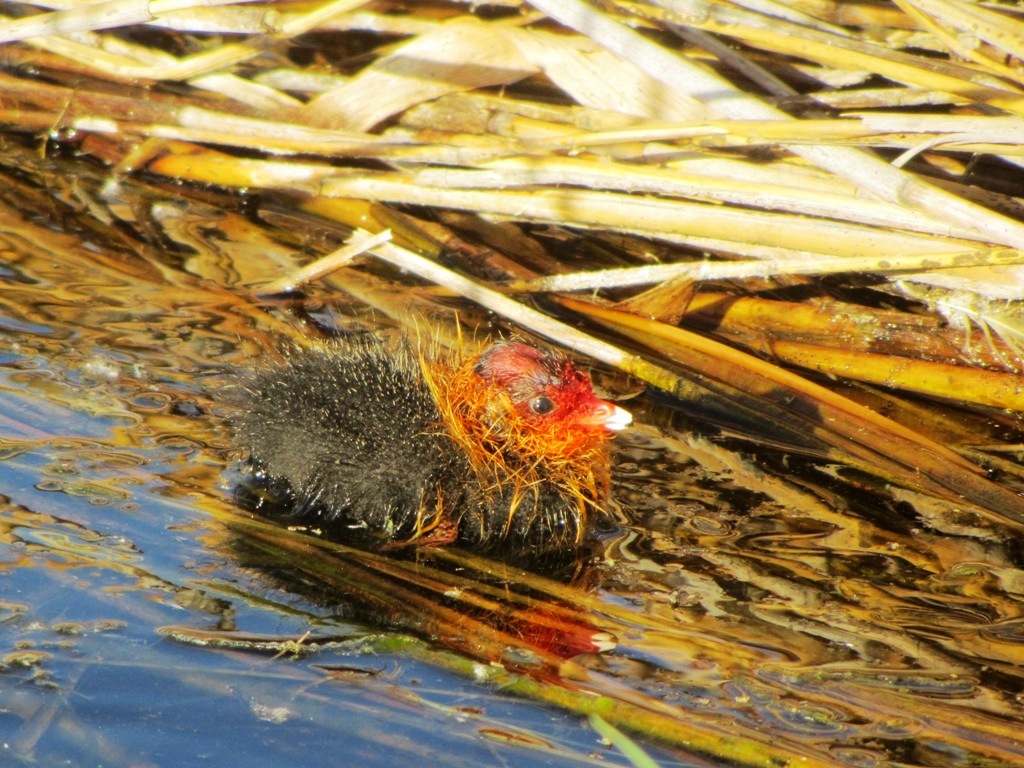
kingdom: Animalia
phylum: Chordata
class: Aves
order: Gruiformes
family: Rallidae
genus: Fulica
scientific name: Fulica atra
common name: Eurasian coot
